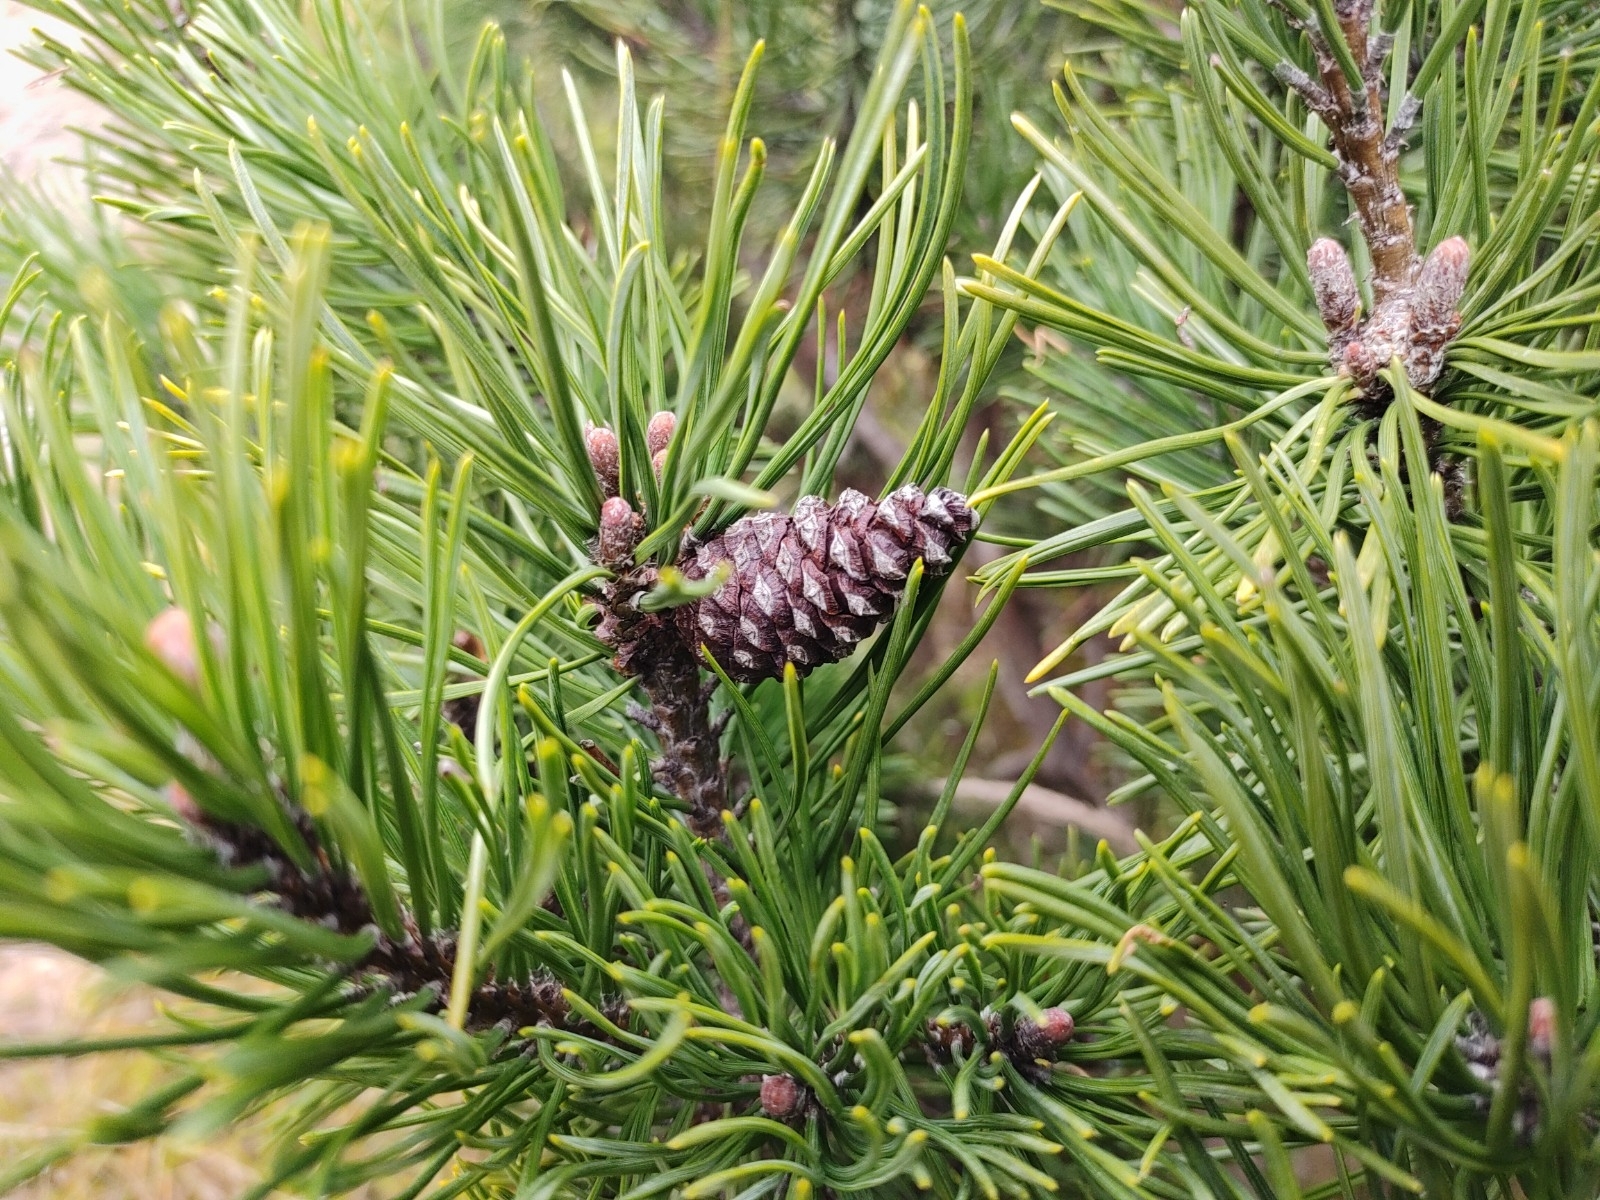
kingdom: Plantae
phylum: Tracheophyta
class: Pinopsida
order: Pinales
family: Pinaceae
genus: Pinus
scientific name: Pinus mugo
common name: Mugo pine
